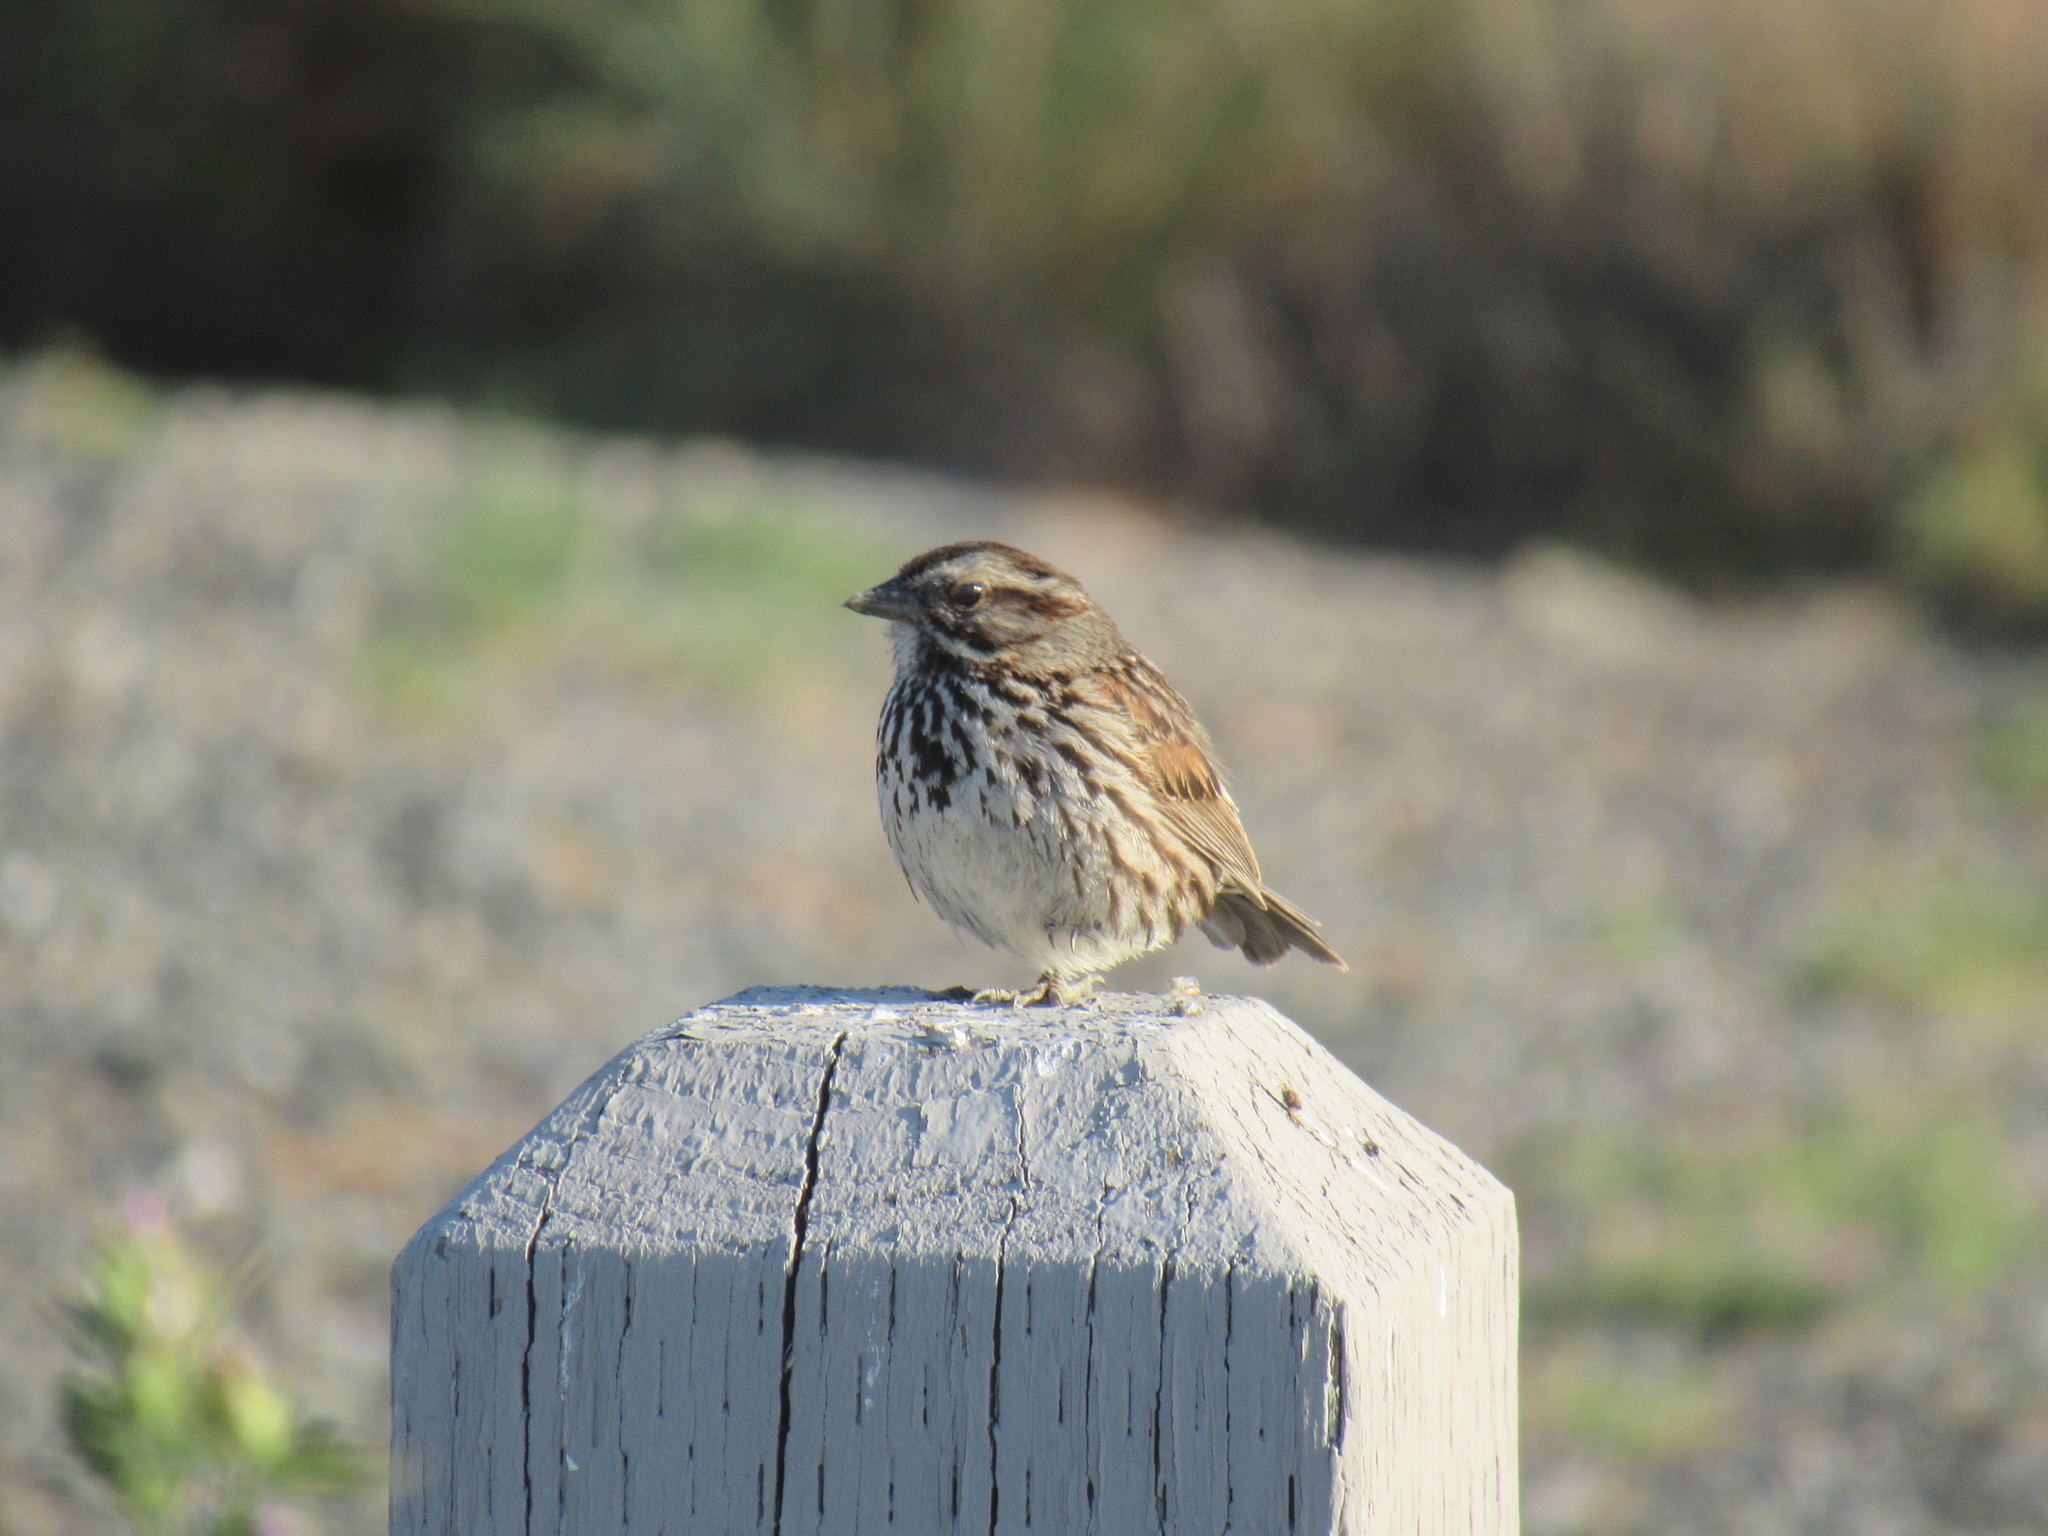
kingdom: Animalia
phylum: Chordata
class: Aves
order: Passeriformes
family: Passerellidae
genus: Melospiza
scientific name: Melospiza melodia
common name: Song sparrow
